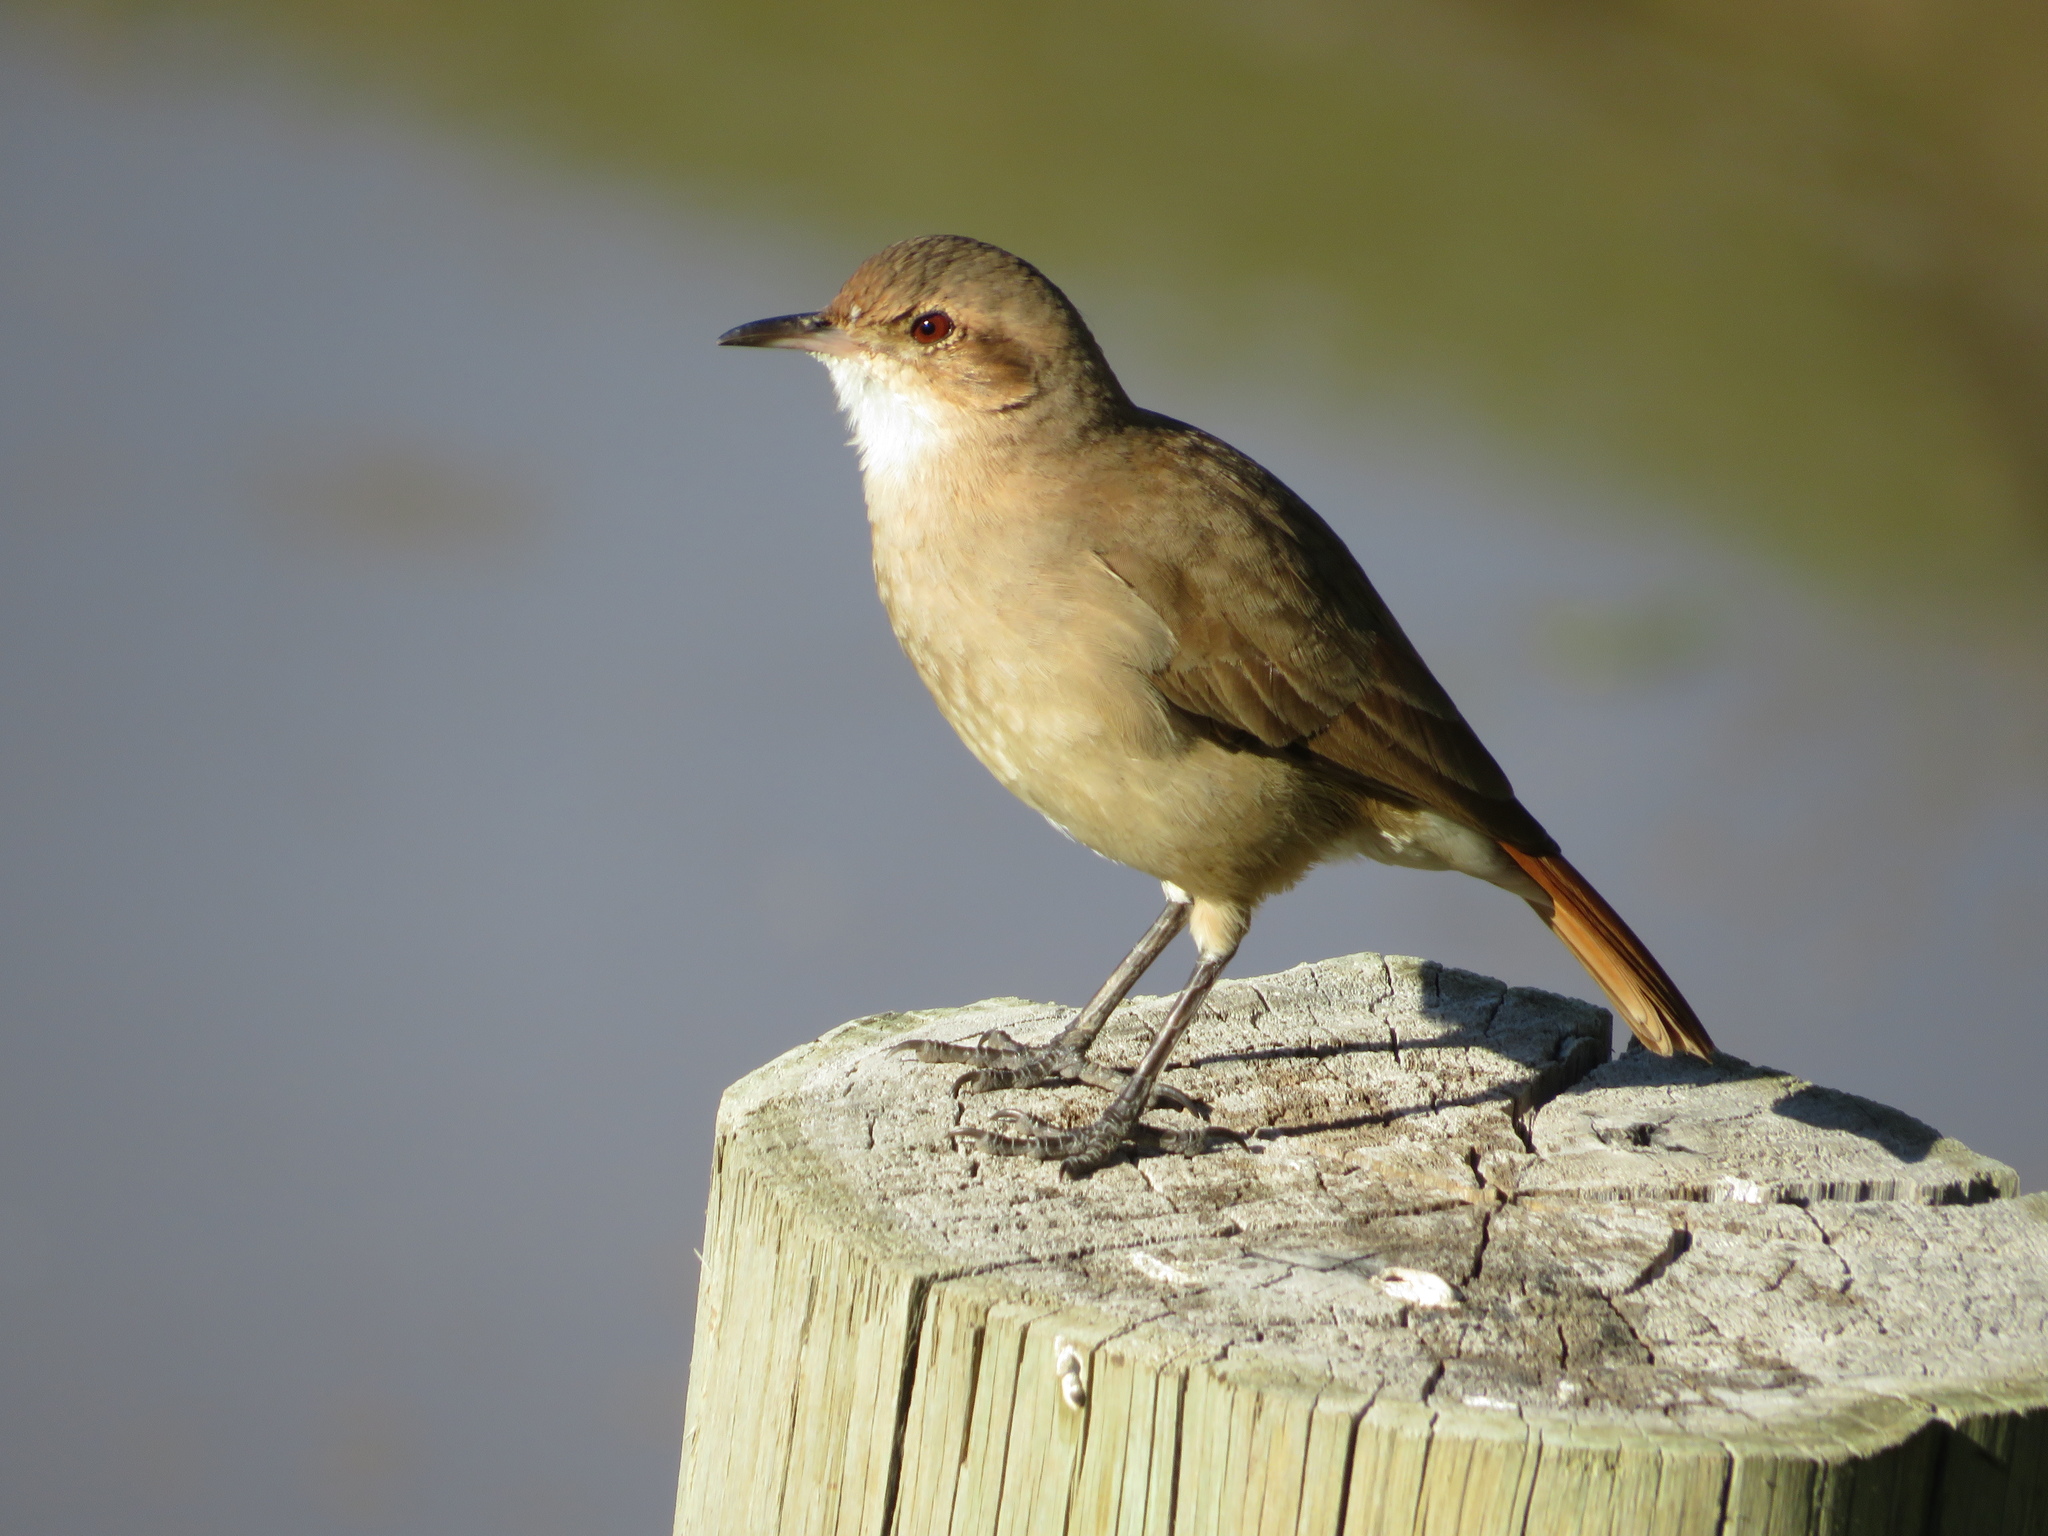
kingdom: Animalia
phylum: Chordata
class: Aves
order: Passeriformes
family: Furnariidae
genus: Furnarius
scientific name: Furnarius rufus
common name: Rufous hornero
